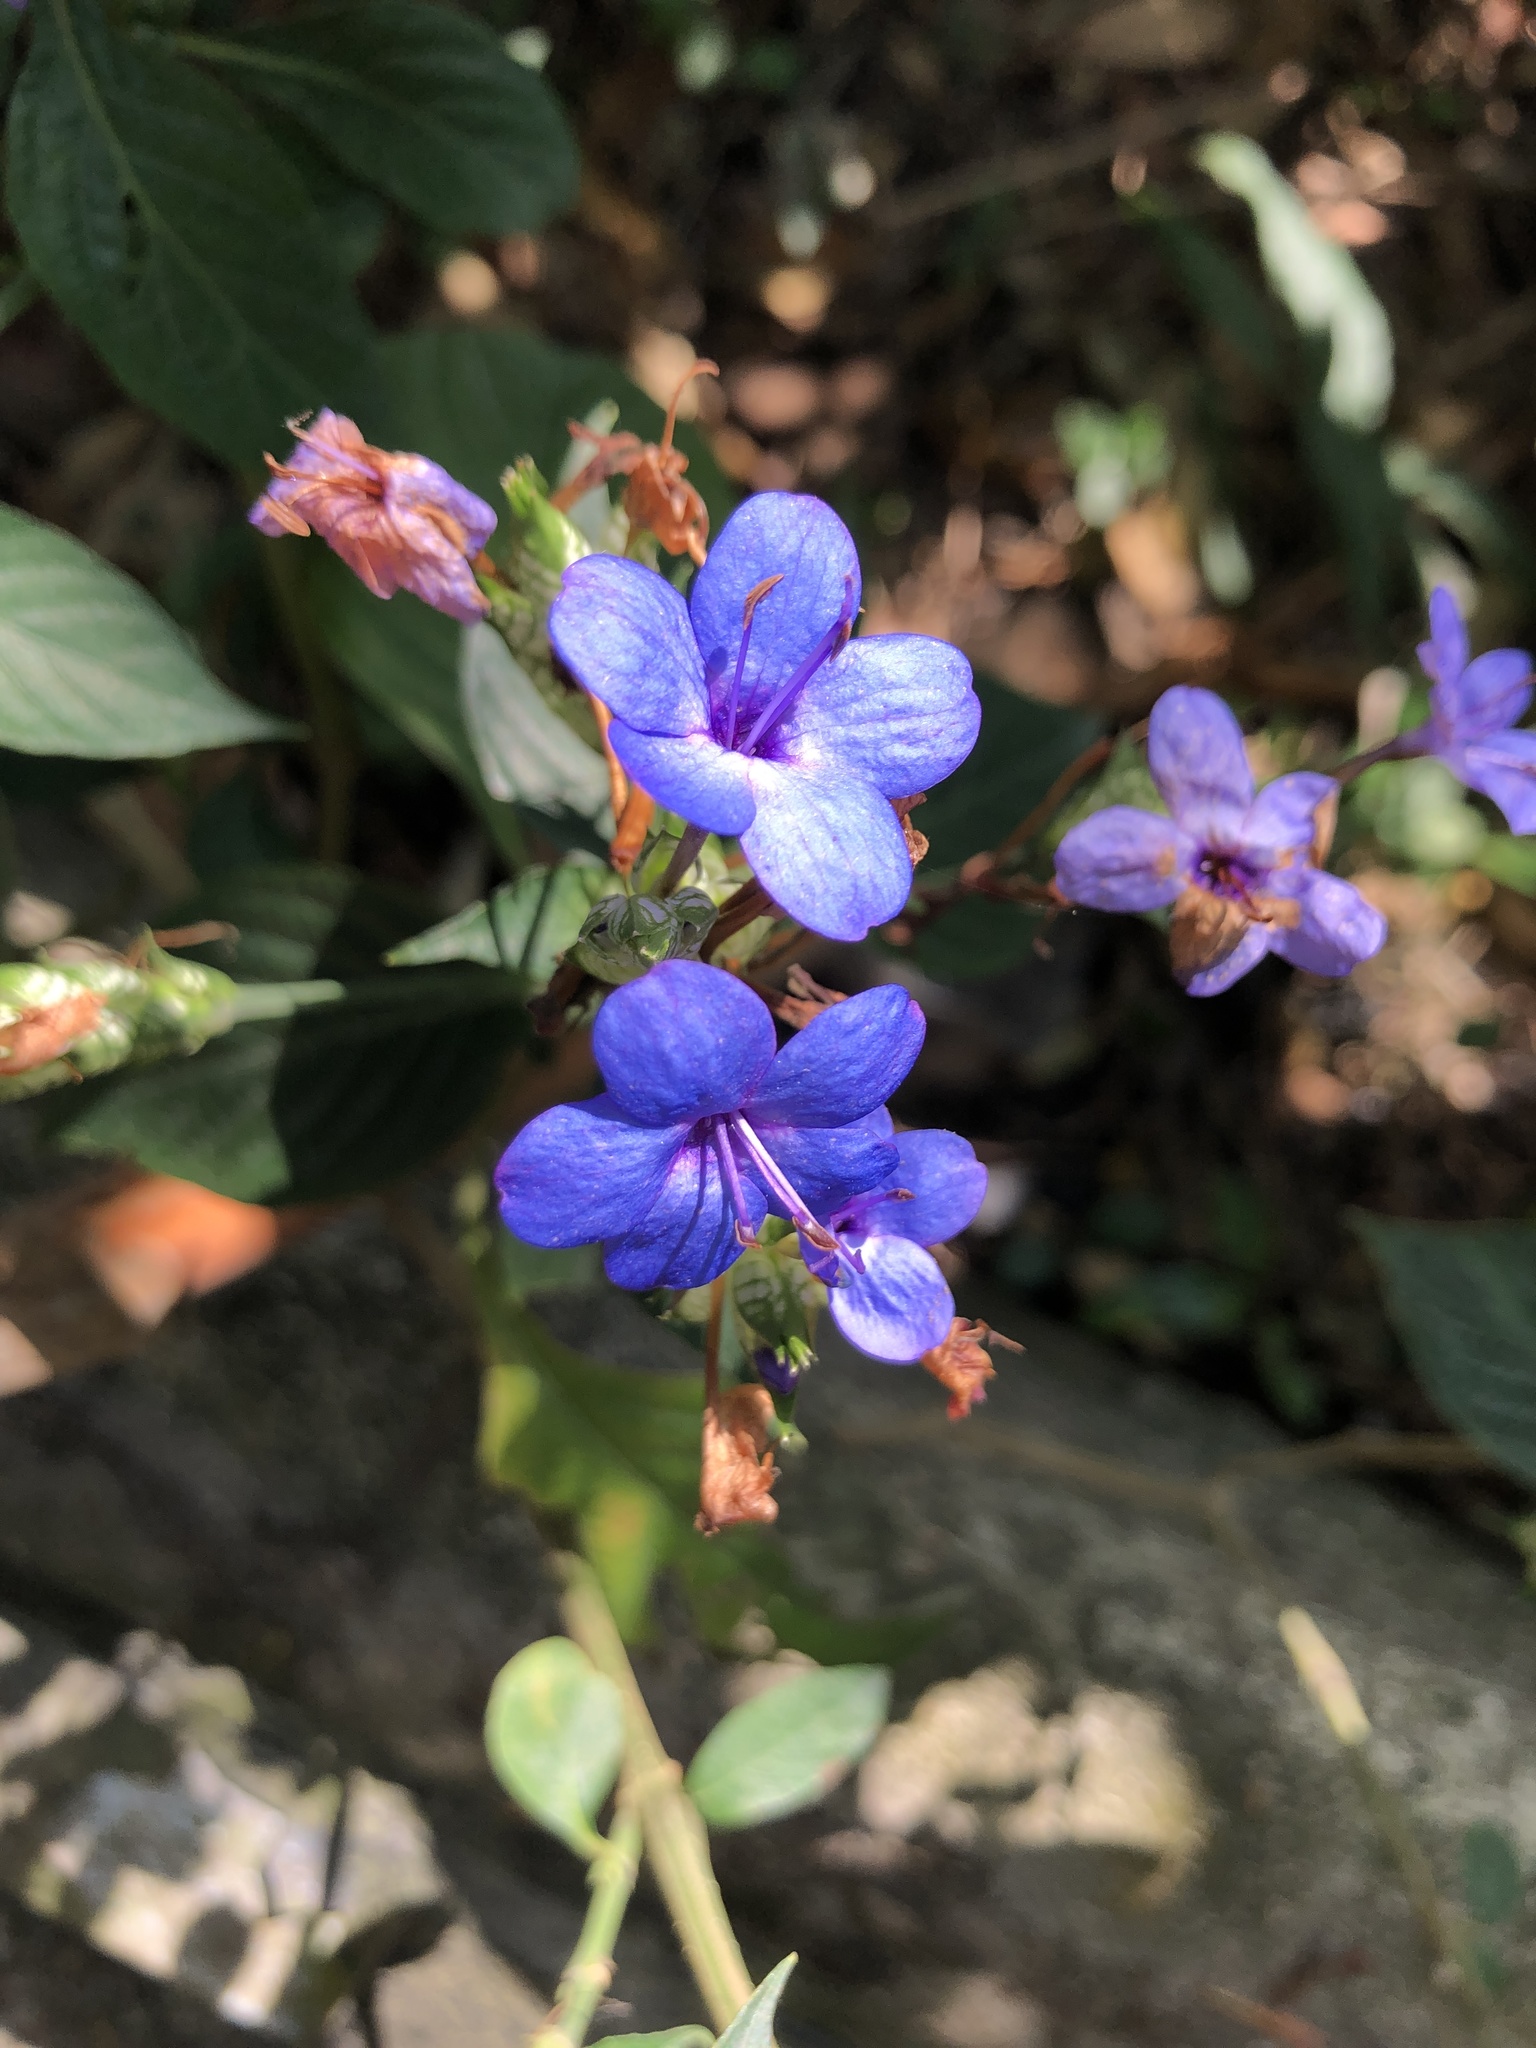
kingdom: Plantae
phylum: Tracheophyta
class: Magnoliopsida
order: Lamiales
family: Acanthaceae
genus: Eranthemum
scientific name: Eranthemum pulchellum
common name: Blue-sage
